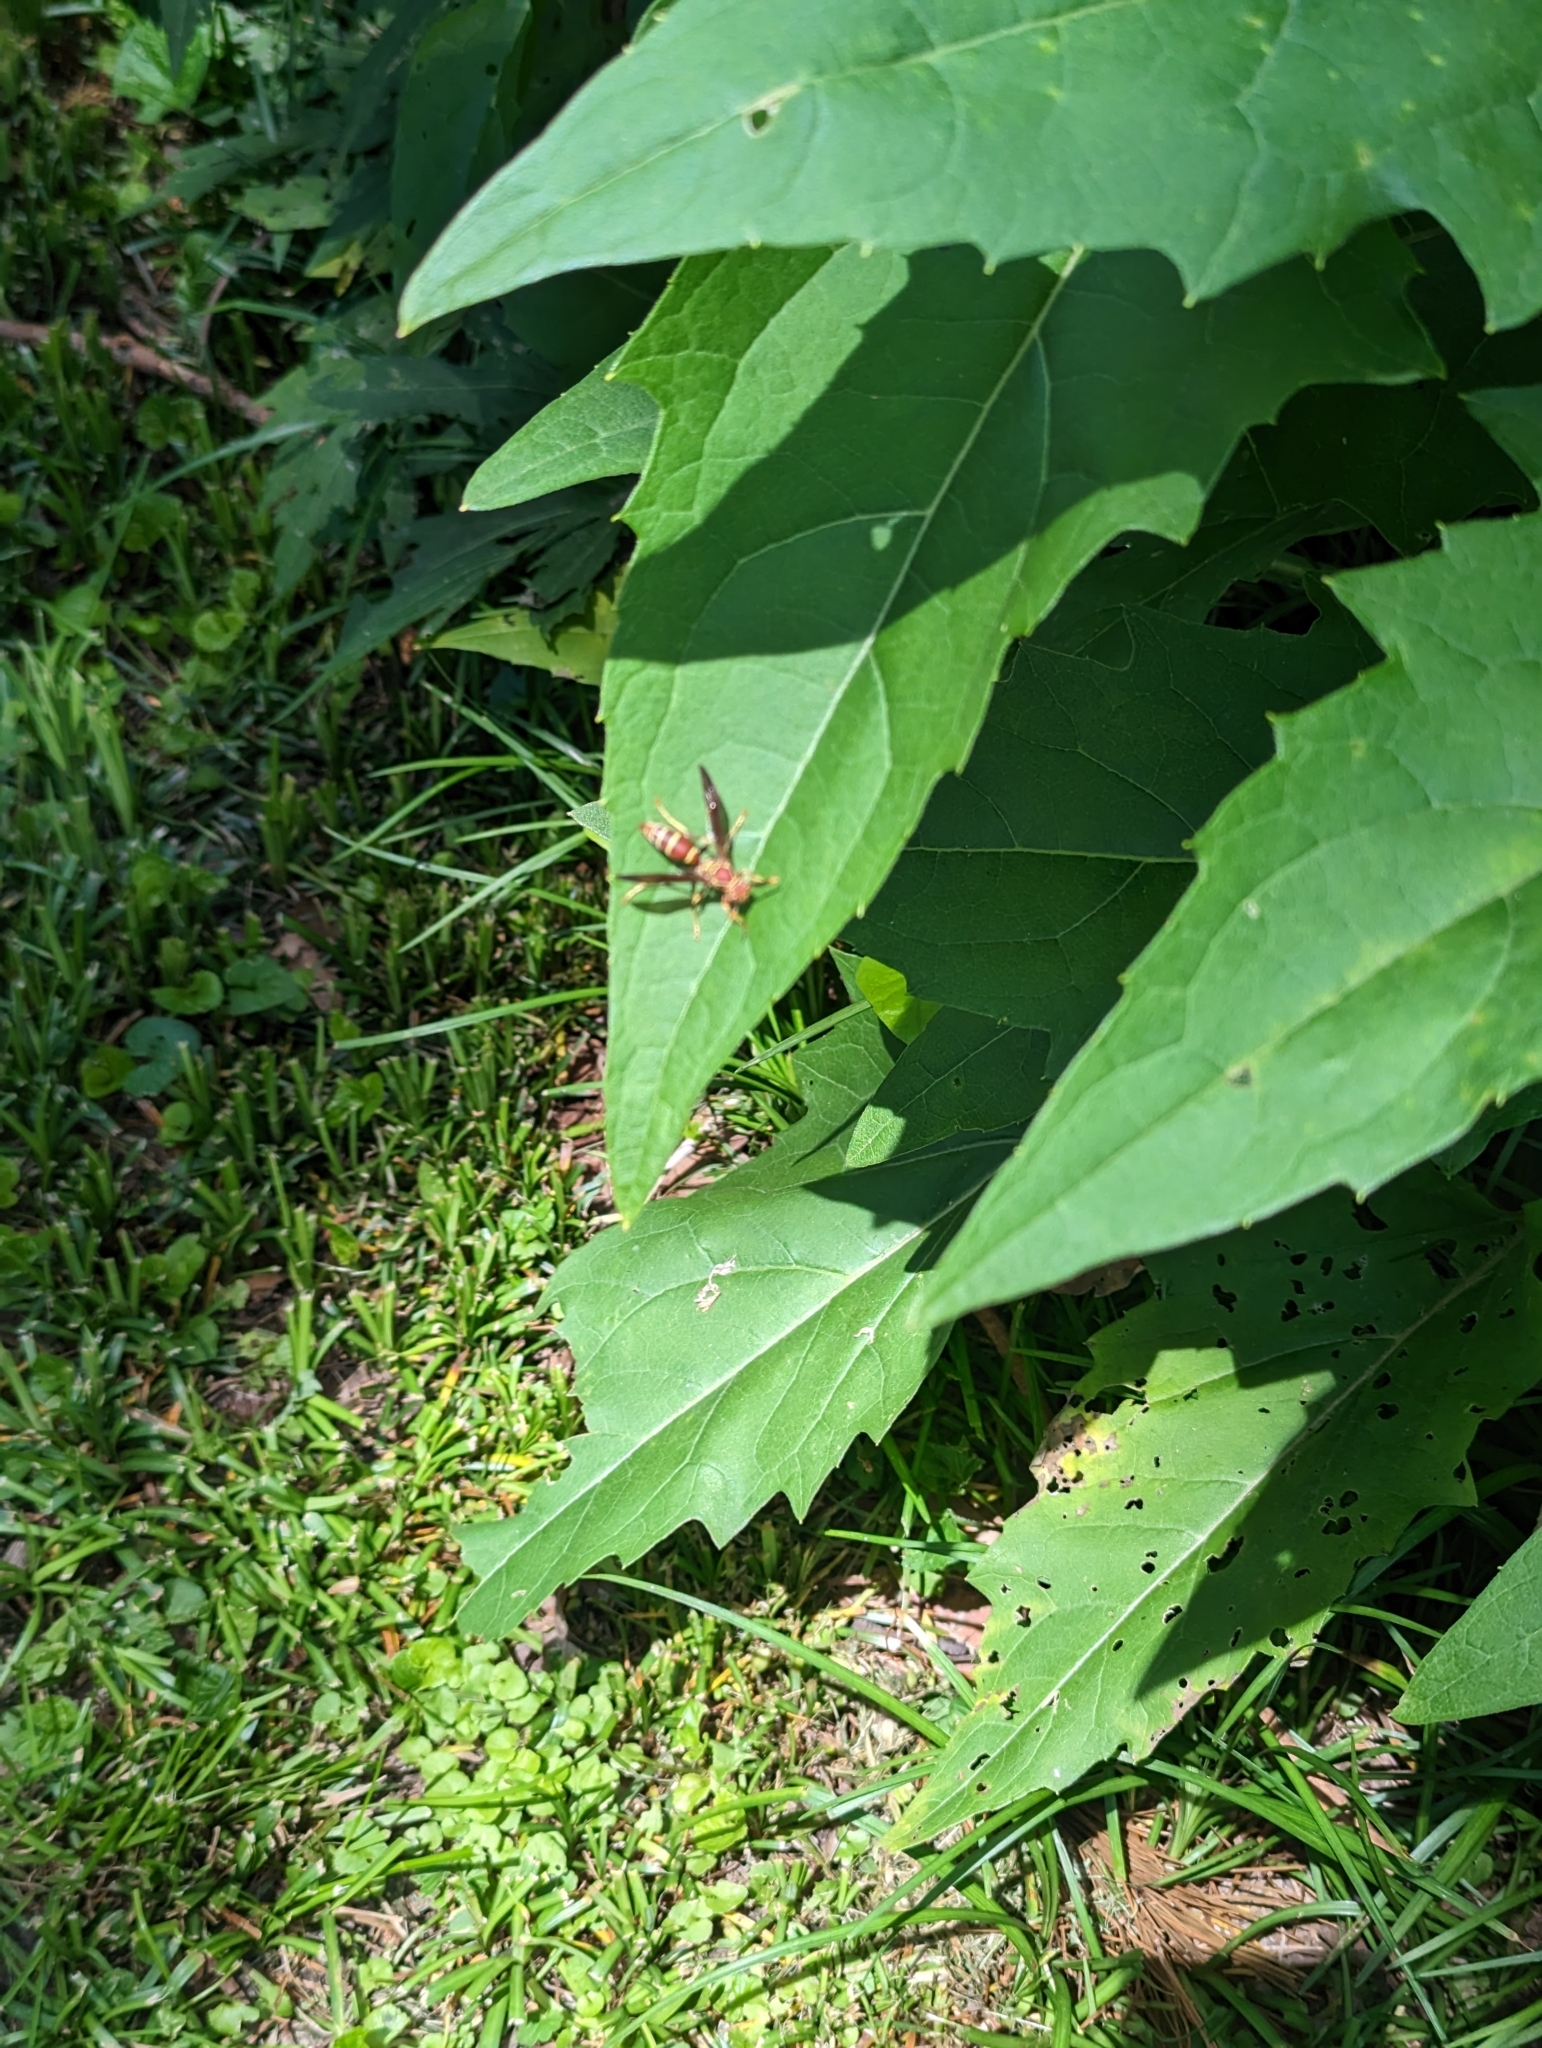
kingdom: Animalia
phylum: Arthropoda
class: Insecta
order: Hymenoptera
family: Eumenidae
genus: Polistes
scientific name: Polistes exclamans
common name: Paper wasp
